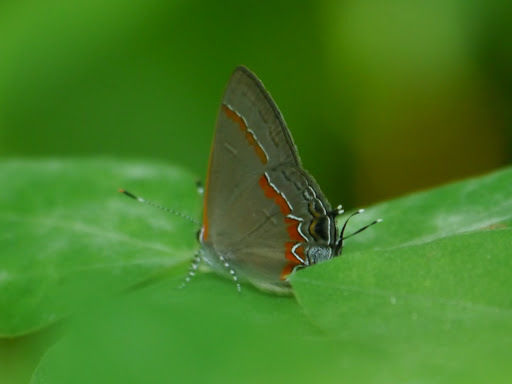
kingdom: Animalia
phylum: Arthropoda
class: Insecta
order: Lepidoptera
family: Lycaenidae
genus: Calycopis
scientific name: Calycopis cecrops
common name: Red-banded hairstreak
